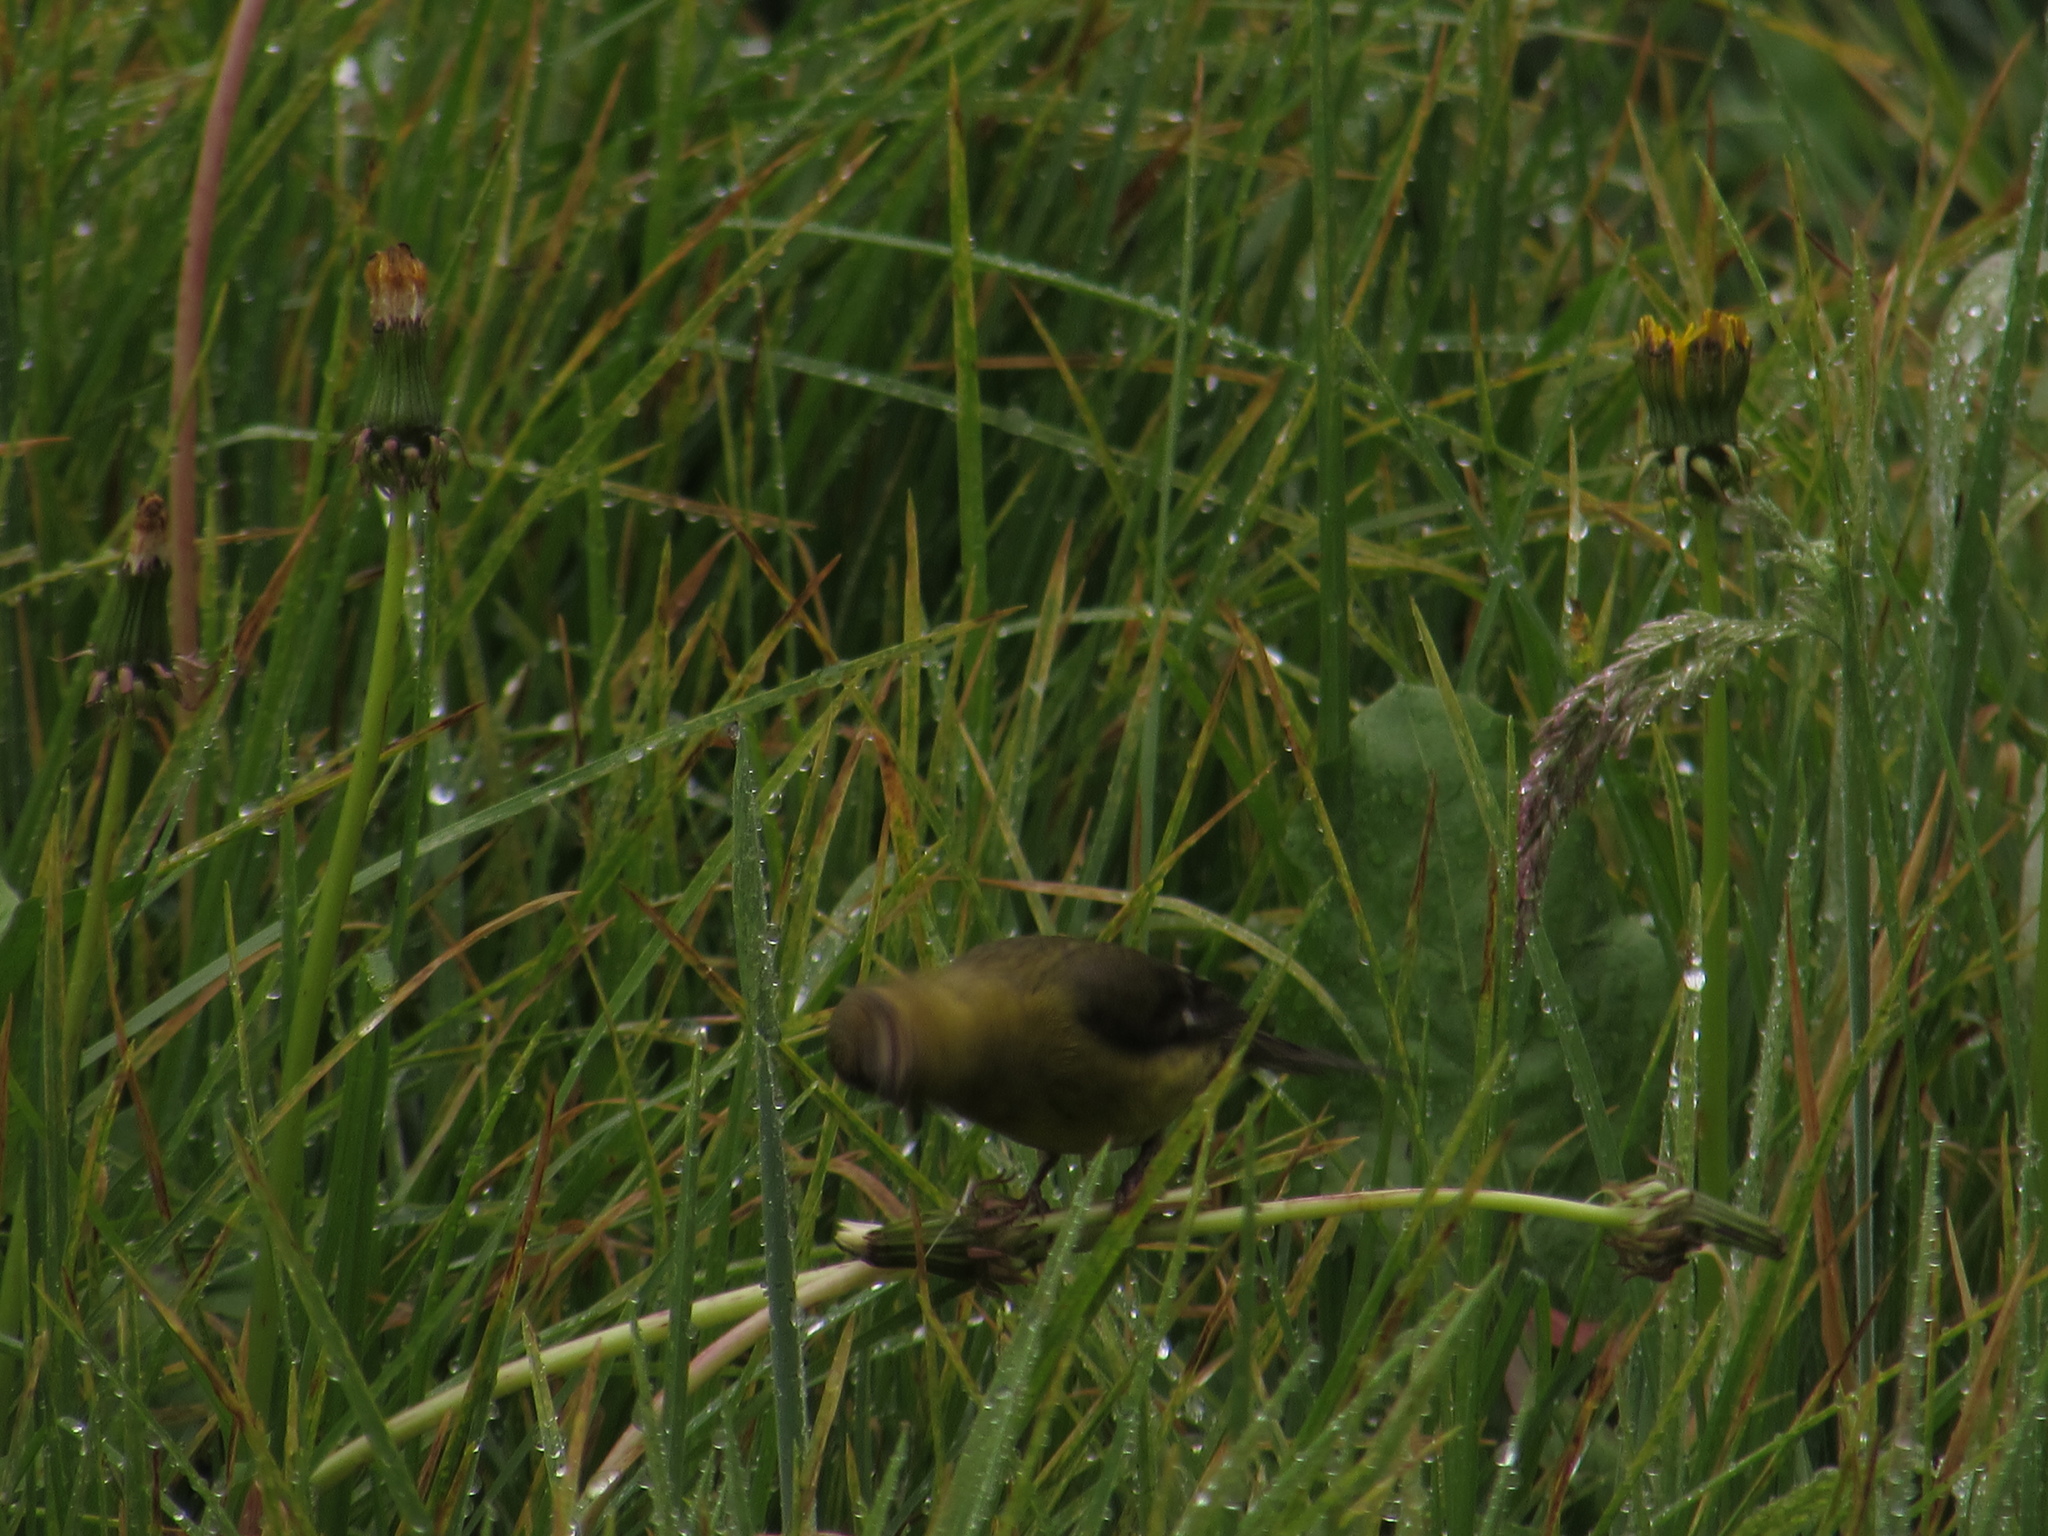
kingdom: Animalia
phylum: Chordata
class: Aves
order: Passeriformes
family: Fringillidae
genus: Spinus
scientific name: Spinus psaltria
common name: Lesser goldfinch
